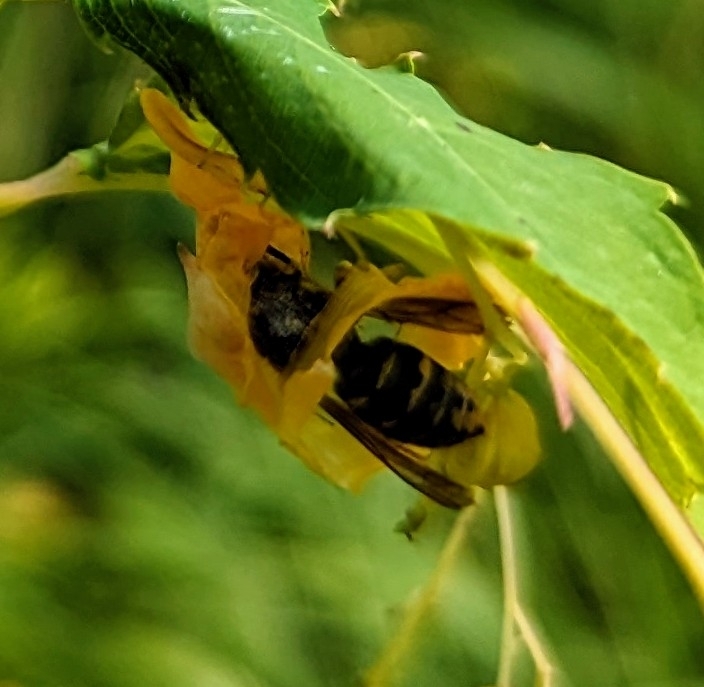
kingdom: Animalia
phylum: Arthropoda
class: Insecta
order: Hymenoptera
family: Vespidae
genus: Dolichovespula
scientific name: Dolichovespula arenaria
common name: Aerial yellowjacket
